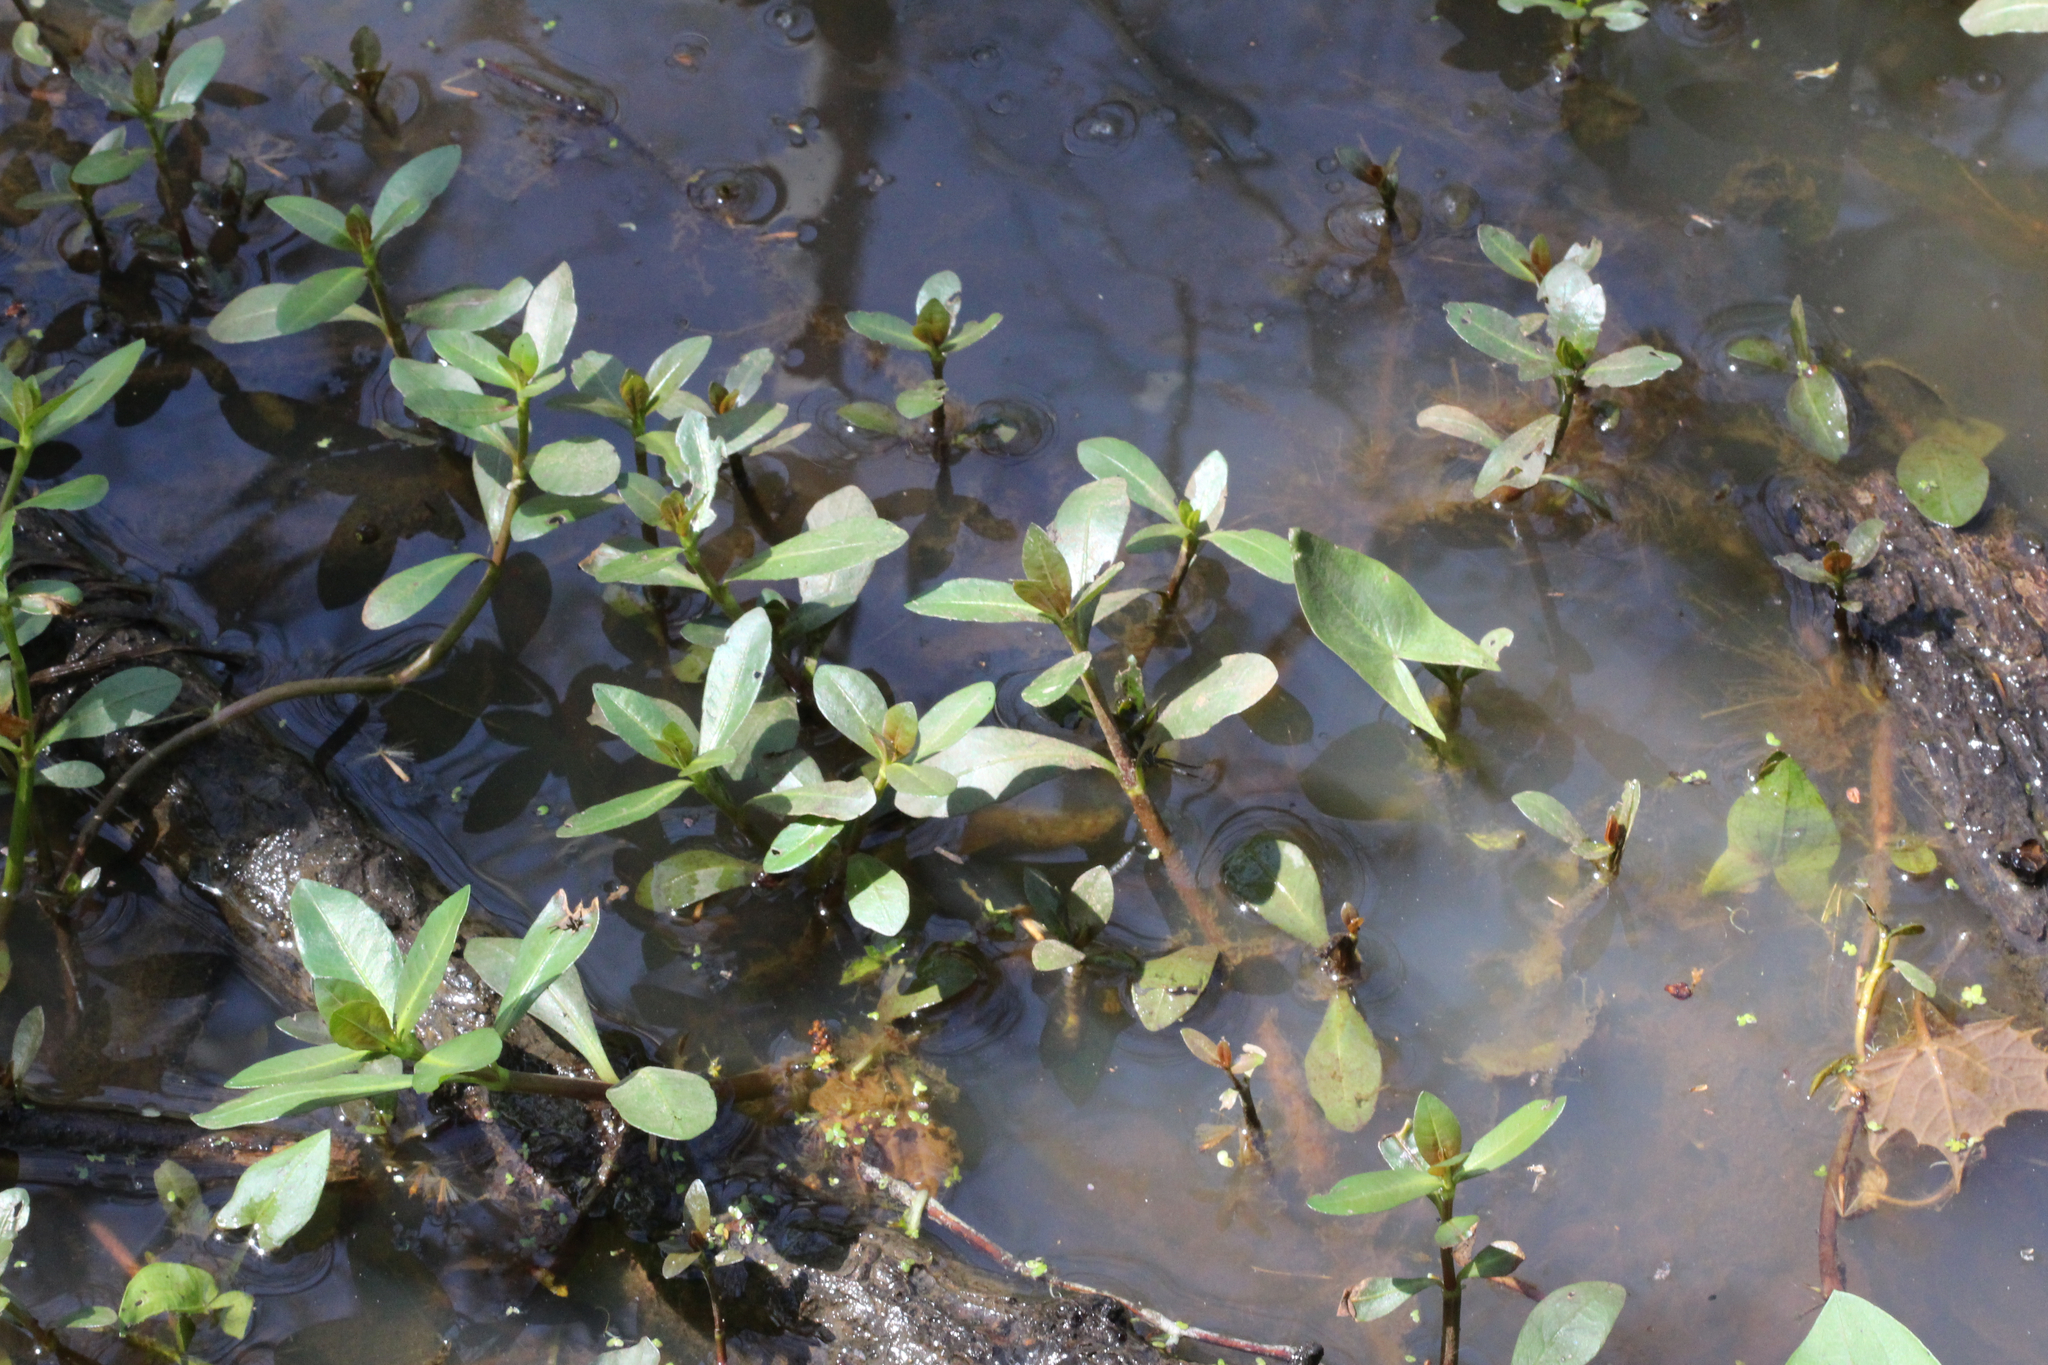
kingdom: Plantae
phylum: Tracheophyta
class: Magnoliopsida
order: Caryophyllales
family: Amaranthaceae
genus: Alternanthera
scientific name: Alternanthera philoxeroides
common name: Alligatorweed
